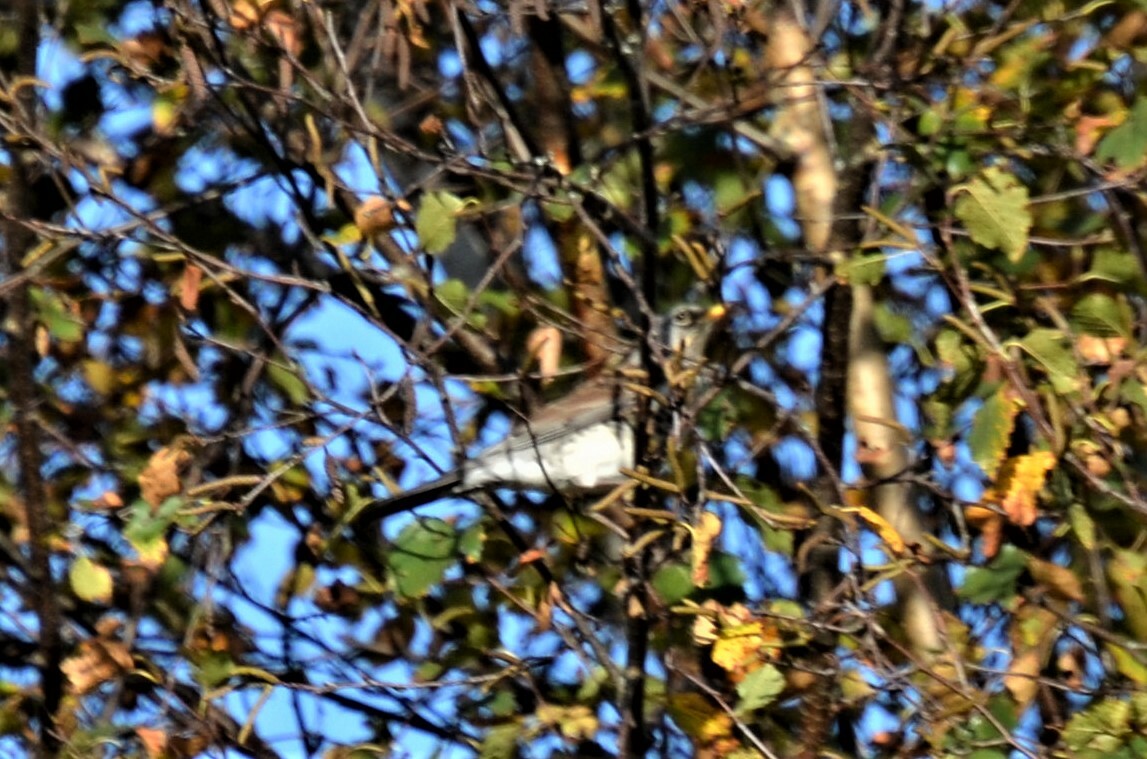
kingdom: Animalia
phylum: Chordata
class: Aves
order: Passeriformes
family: Turdidae
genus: Turdus
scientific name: Turdus pilaris
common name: Fieldfare
